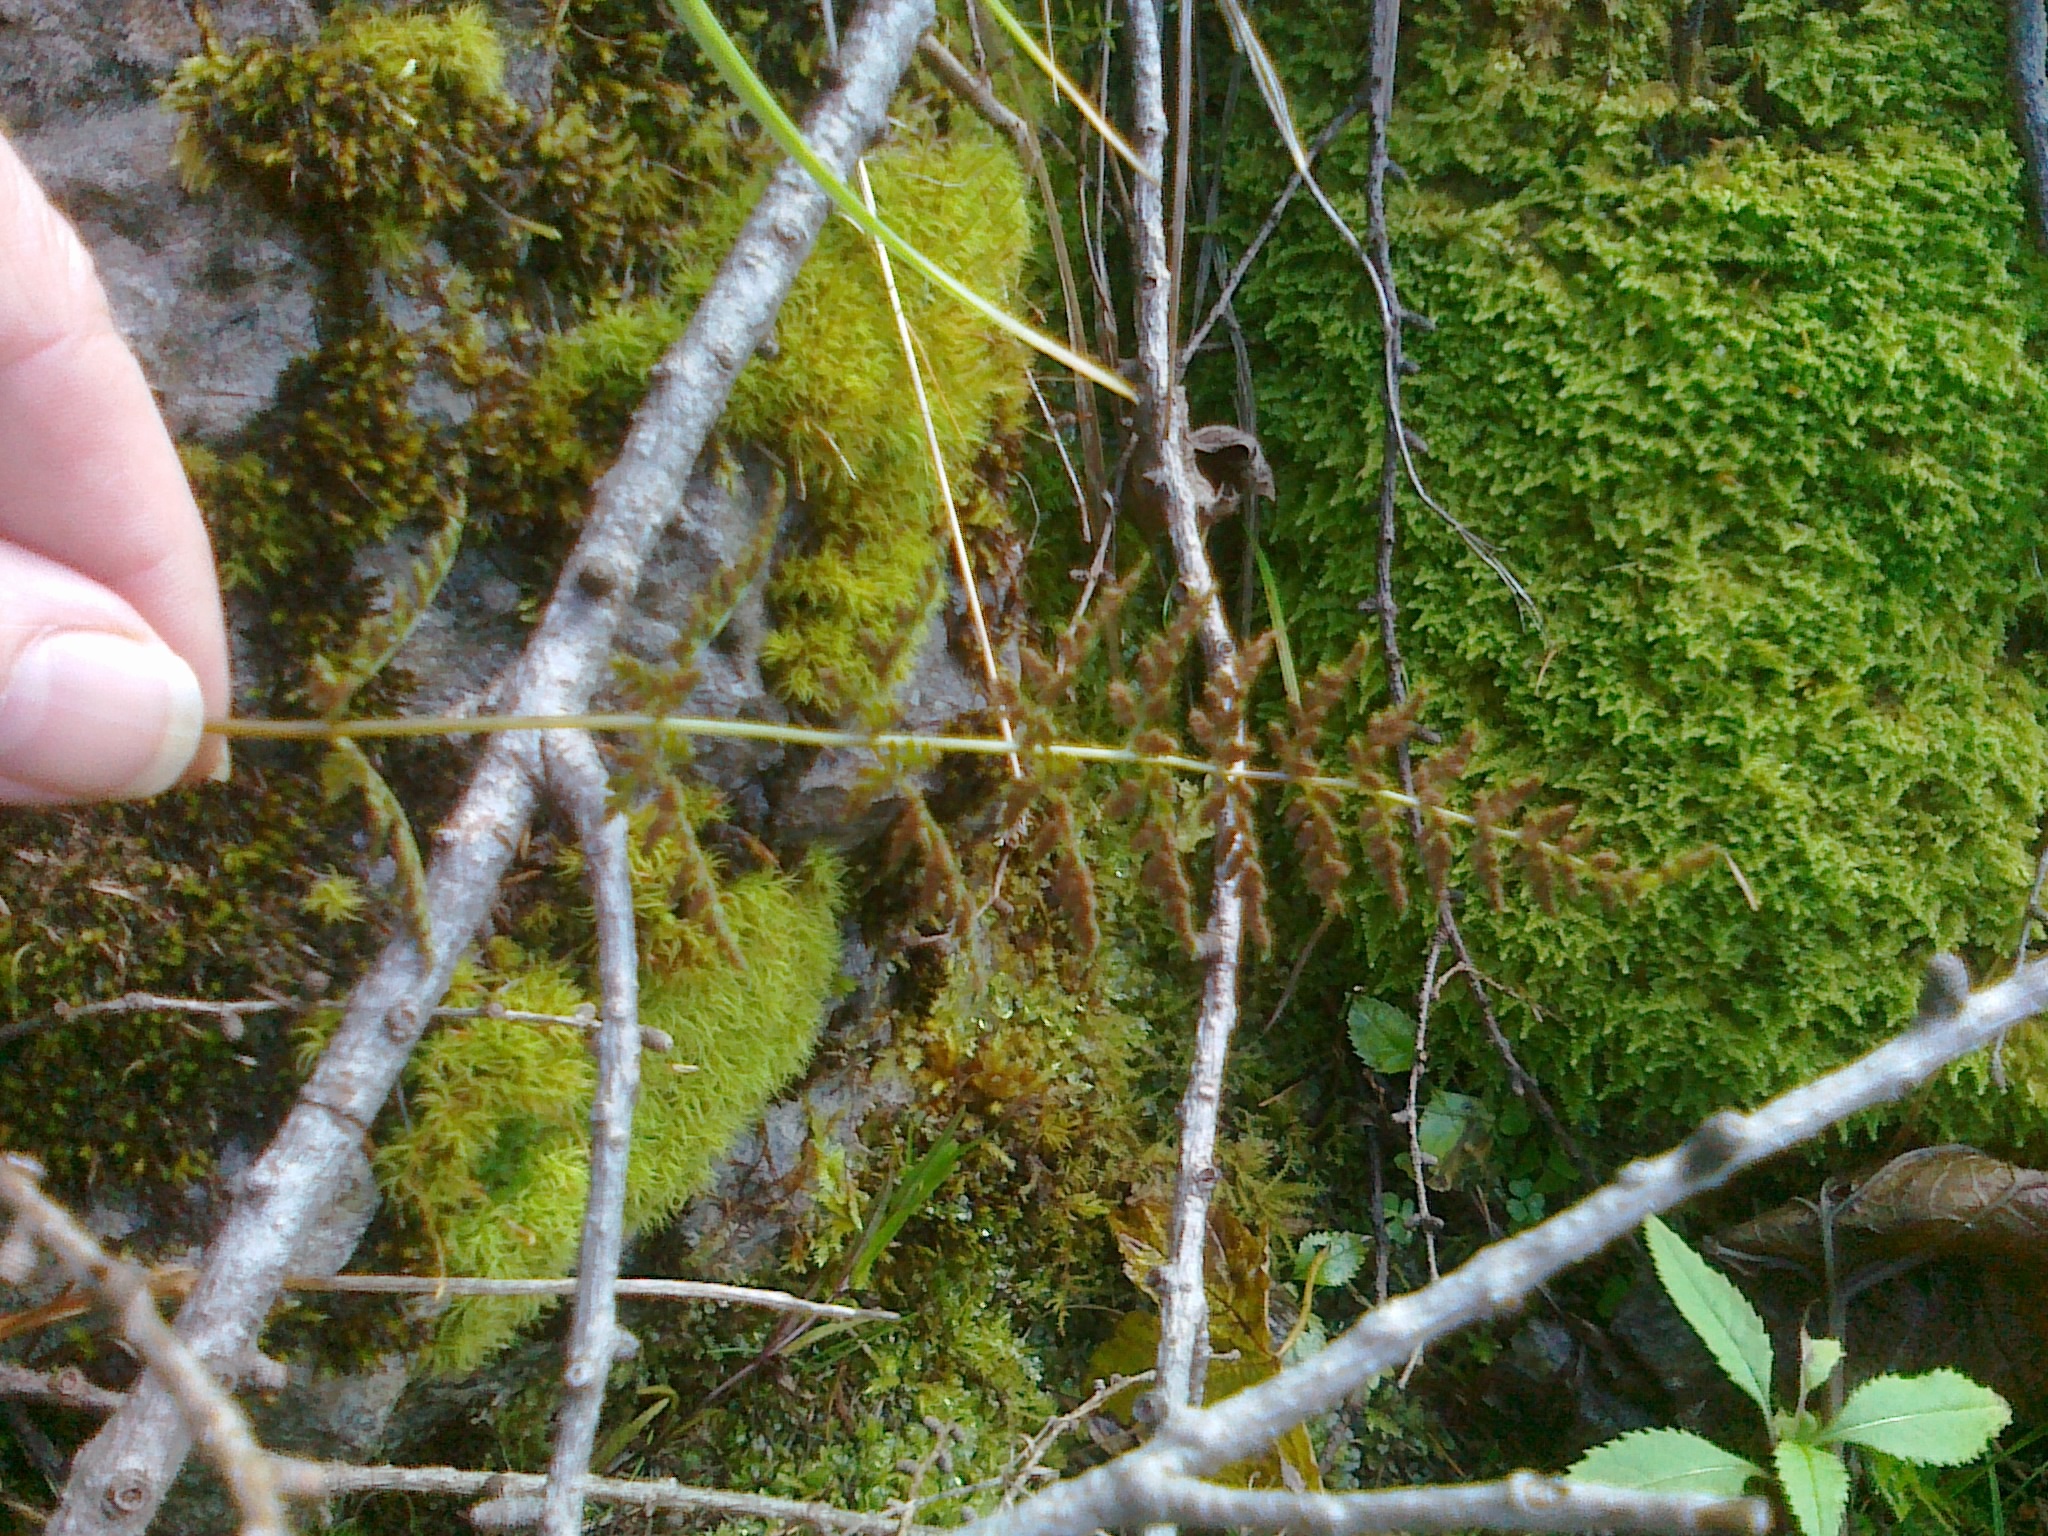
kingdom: Plantae
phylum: Tracheophyta
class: Polypodiopsida
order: Polypodiales
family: Cystopteridaceae
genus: Cystopteris
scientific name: Cystopteris fragilis
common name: Brittle bladder fern
